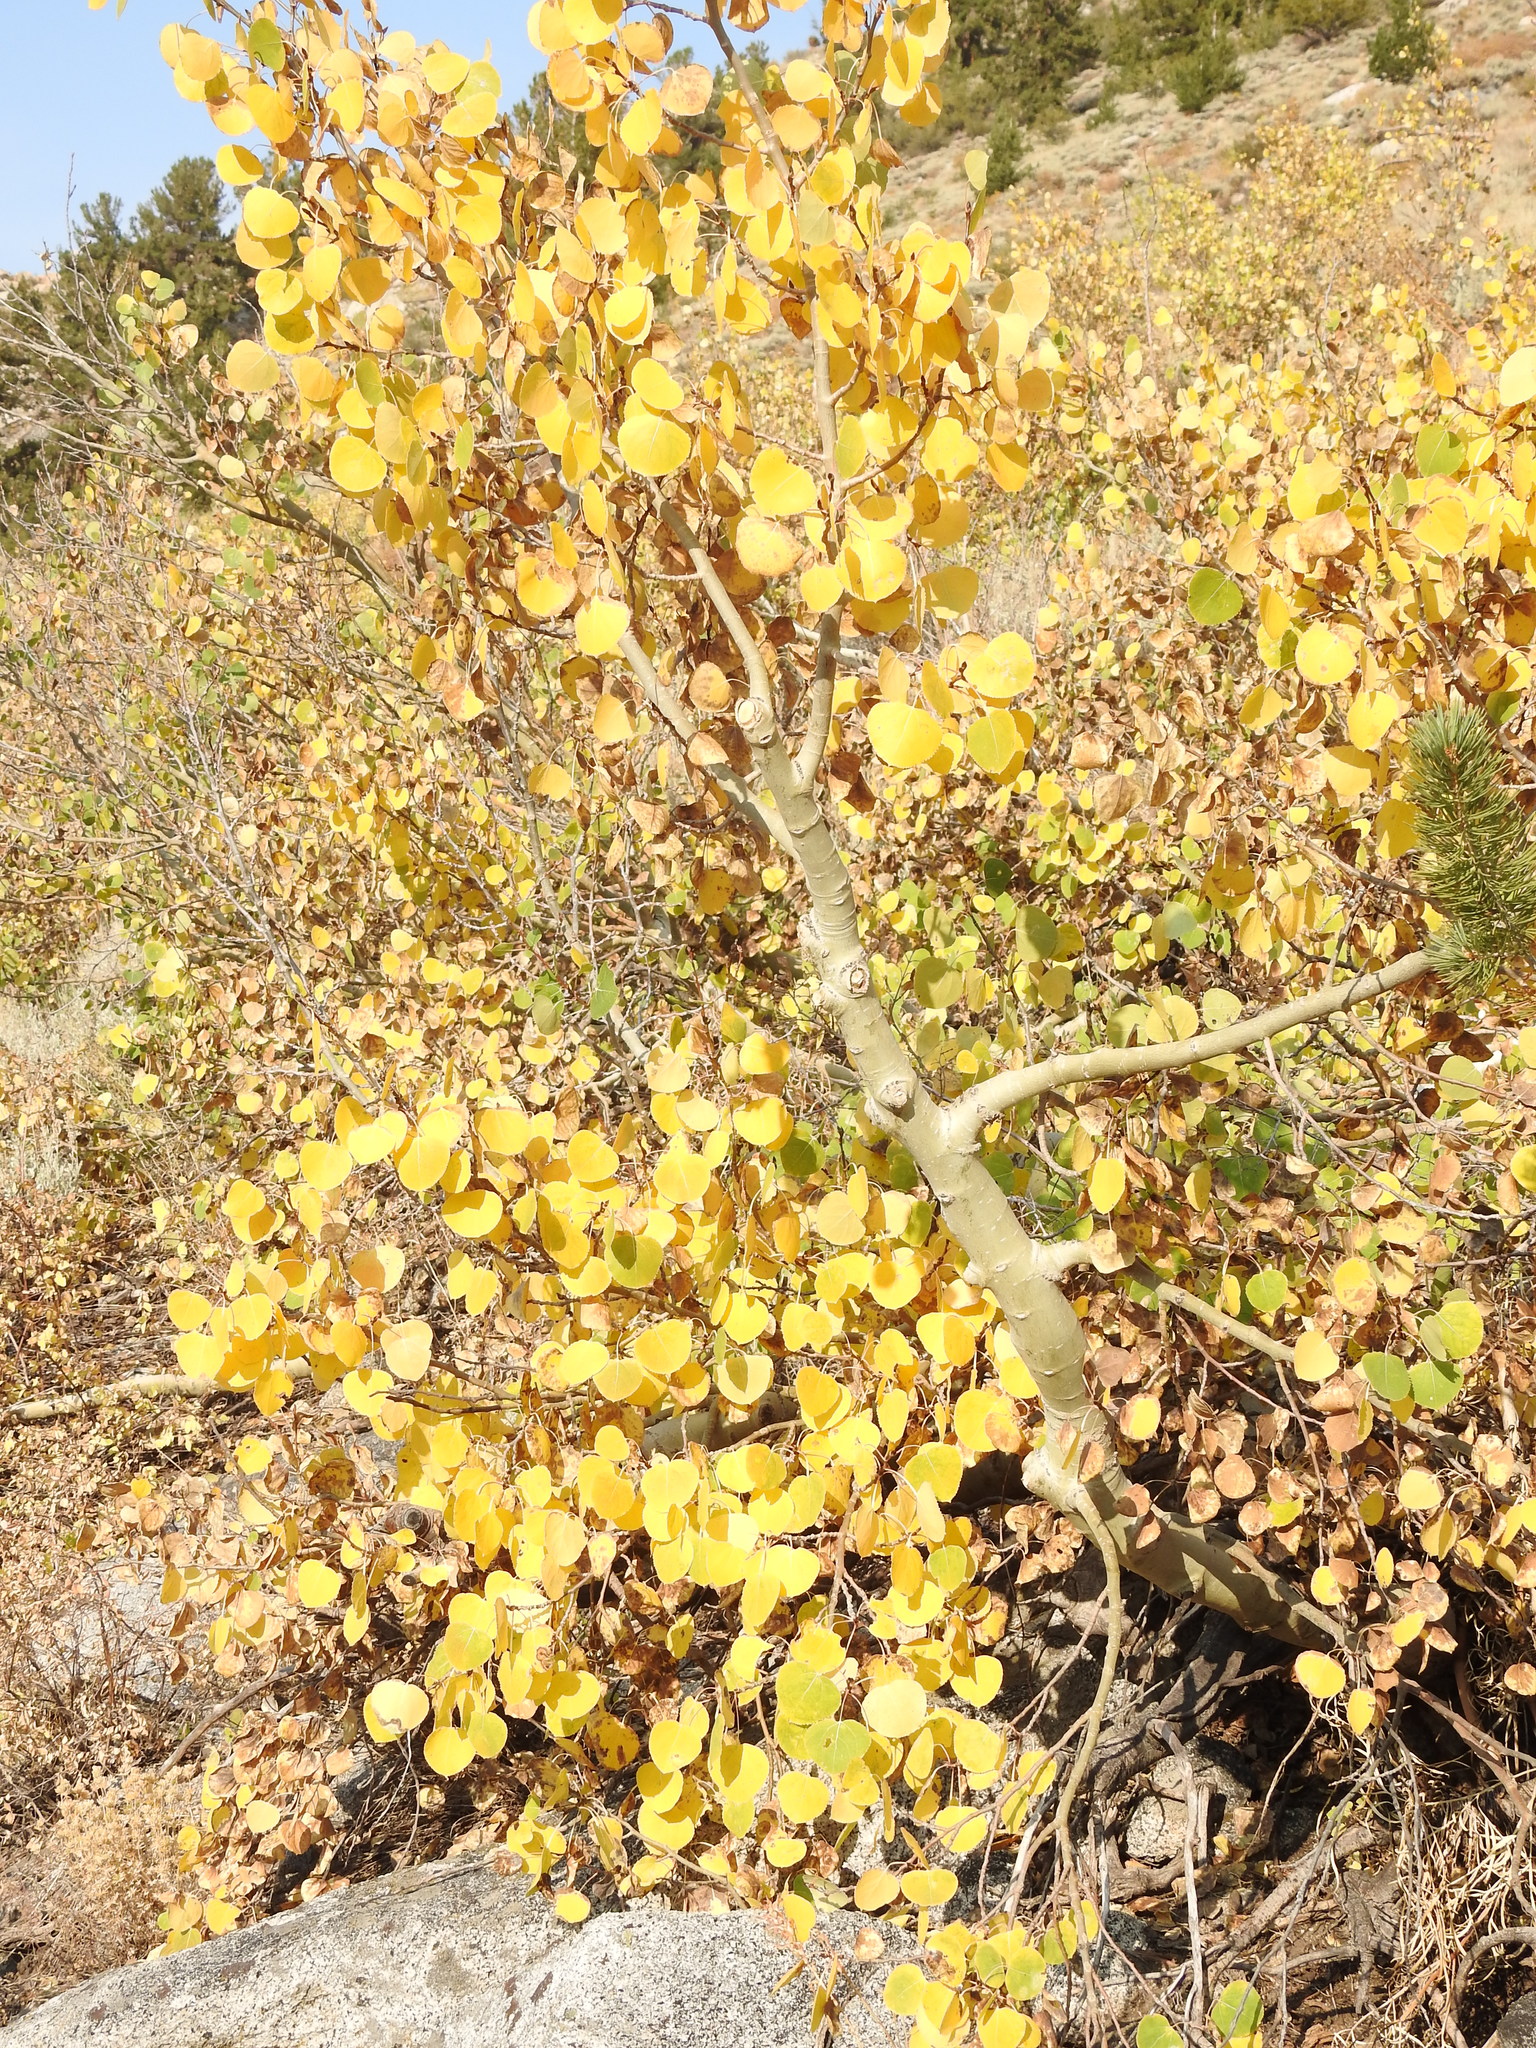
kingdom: Plantae
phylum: Tracheophyta
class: Magnoliopsida
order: Malpighiales
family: Salicaceae
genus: Populus
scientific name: Populus tremuloides
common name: Quaking aspen
